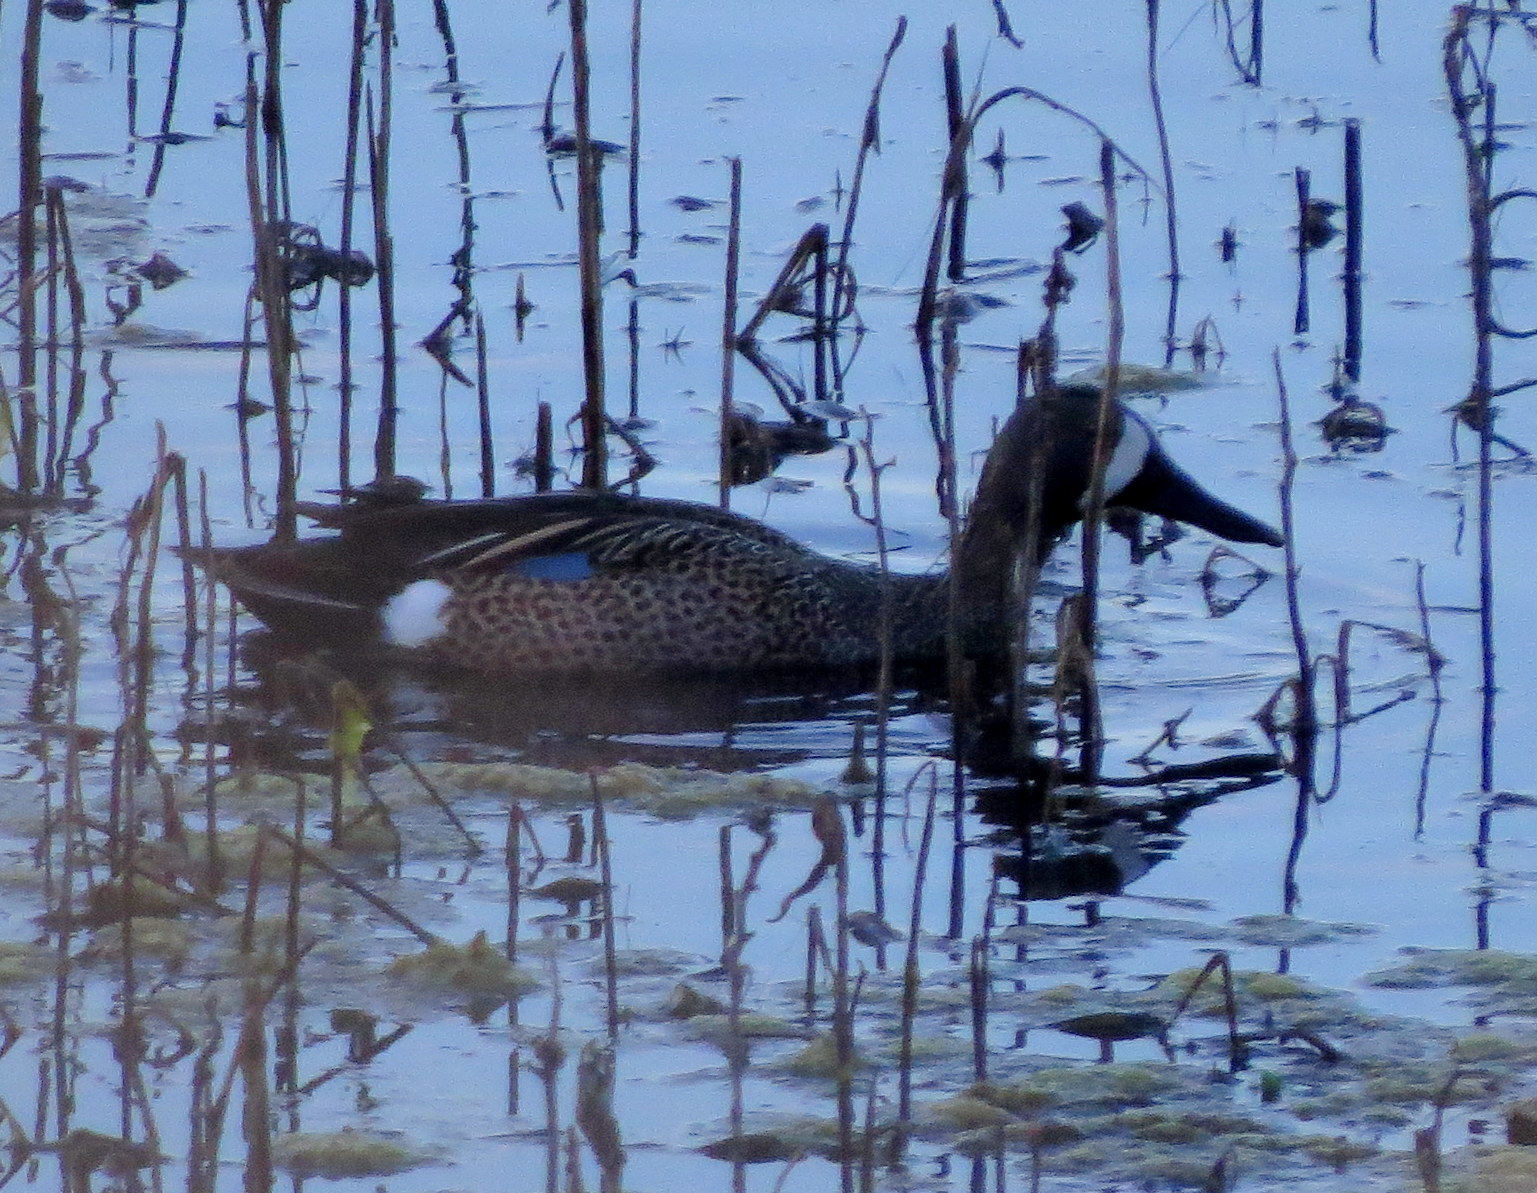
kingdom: Animalia
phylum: Chordata
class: Aves
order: Anseriformes
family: Anatidae
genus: Spatula
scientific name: Spatula discors
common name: Blue-winged teal
